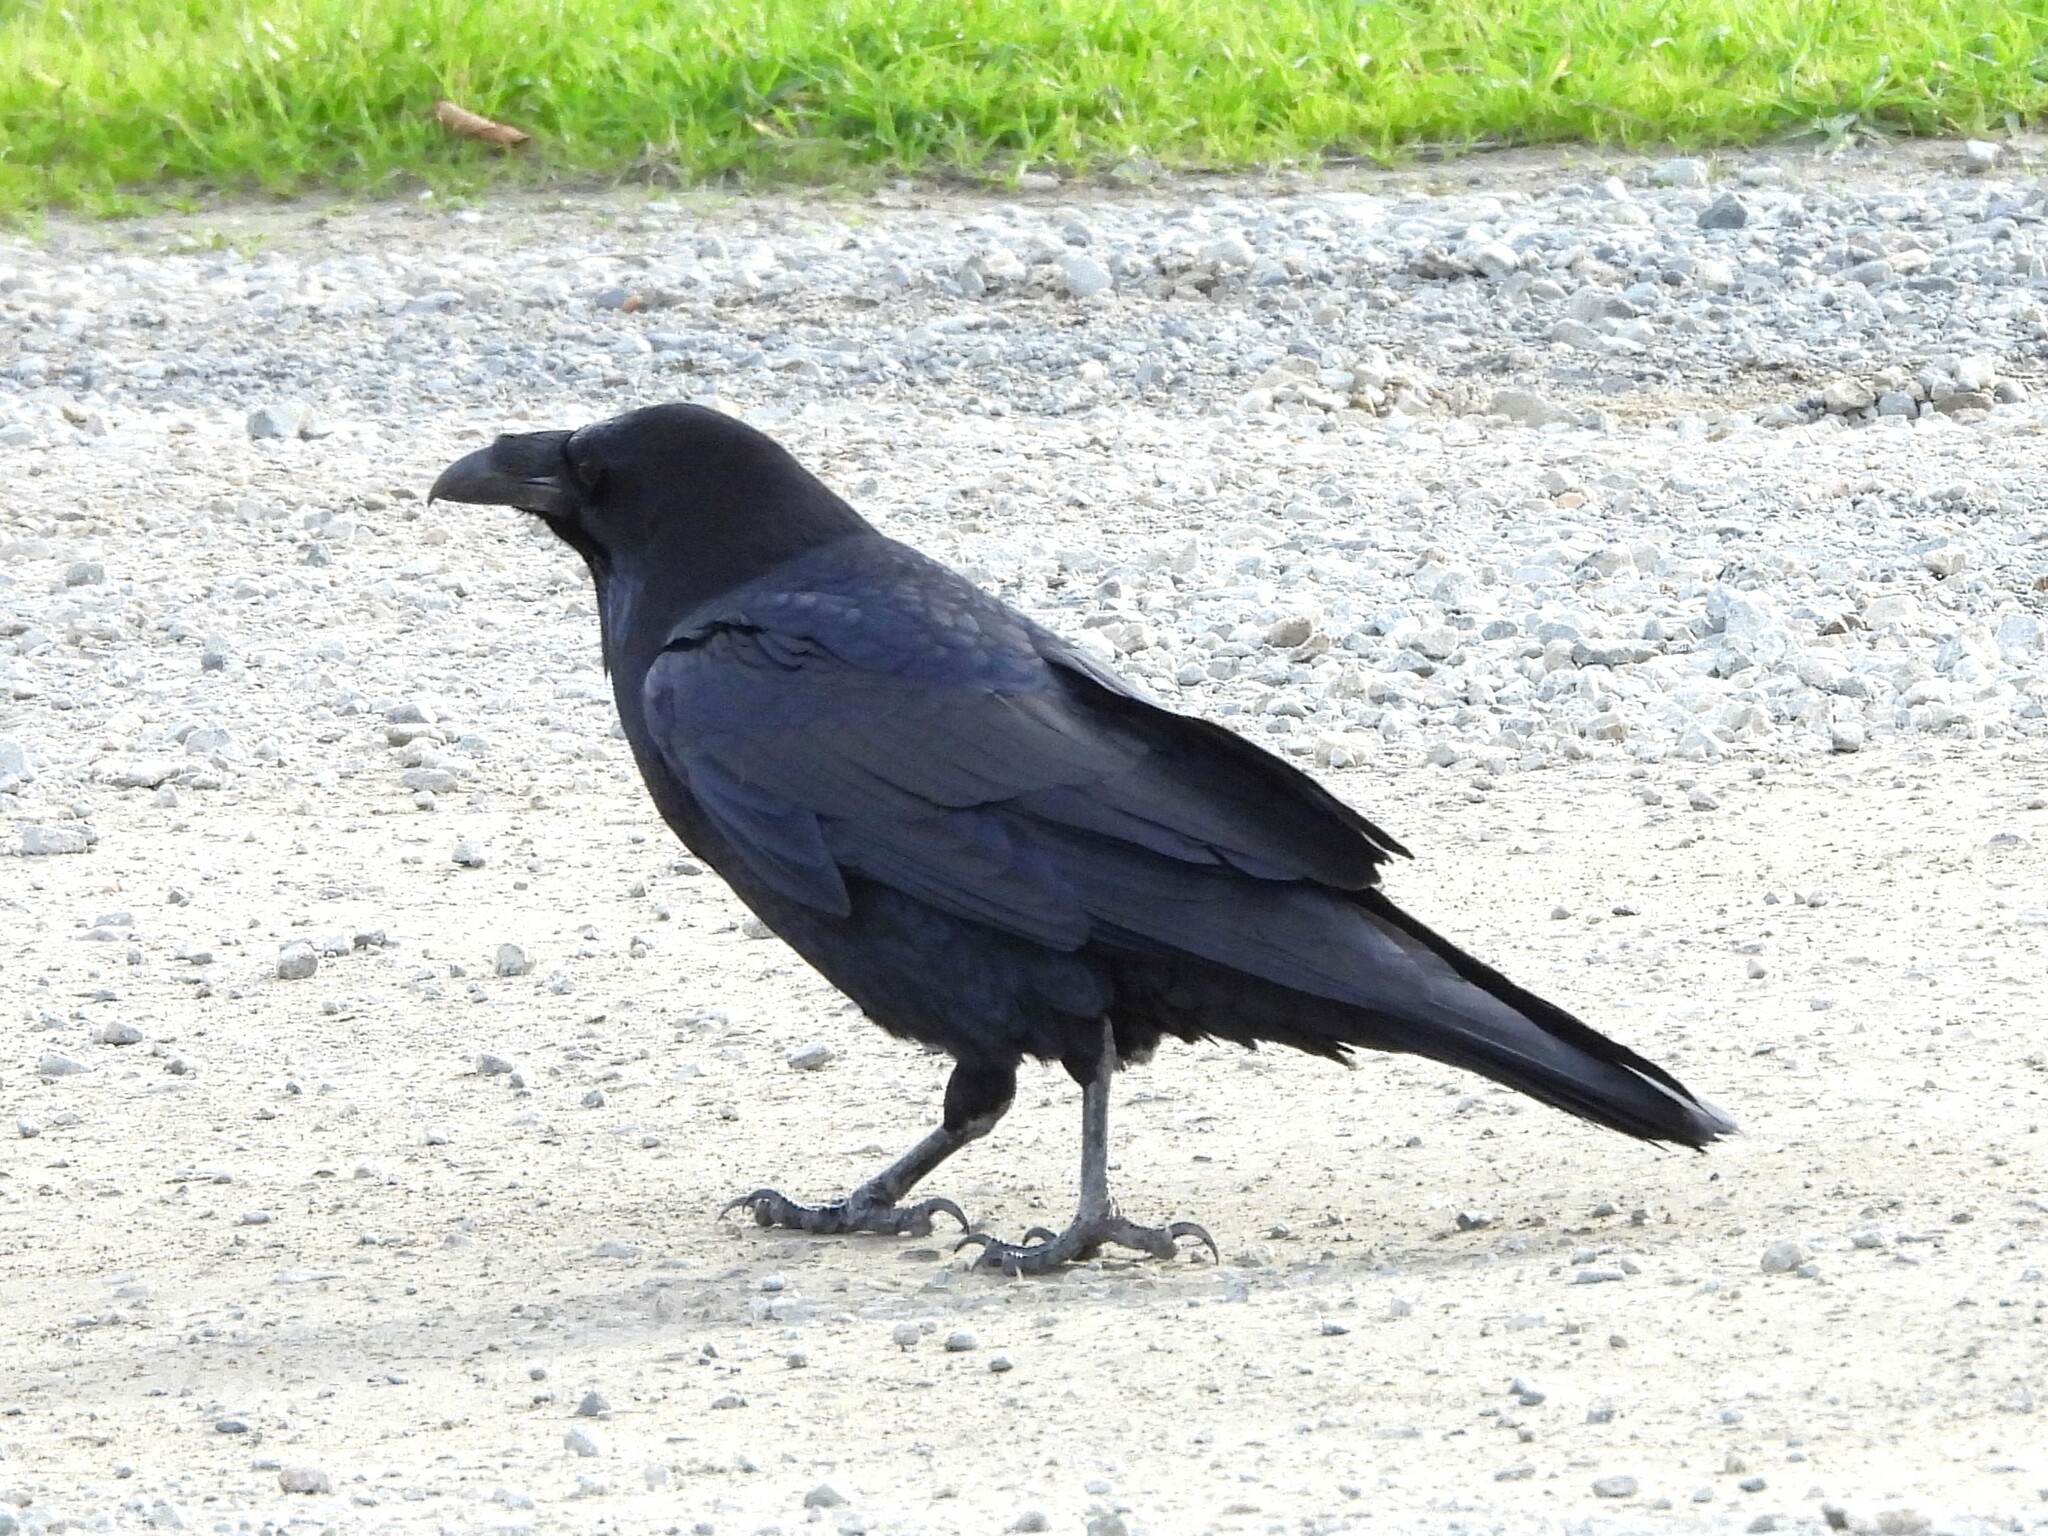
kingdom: Animalia
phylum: Chordata
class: Aves
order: Passeriformes
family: Corvidae
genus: Corvus
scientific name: Corvus corax
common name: Common raven
